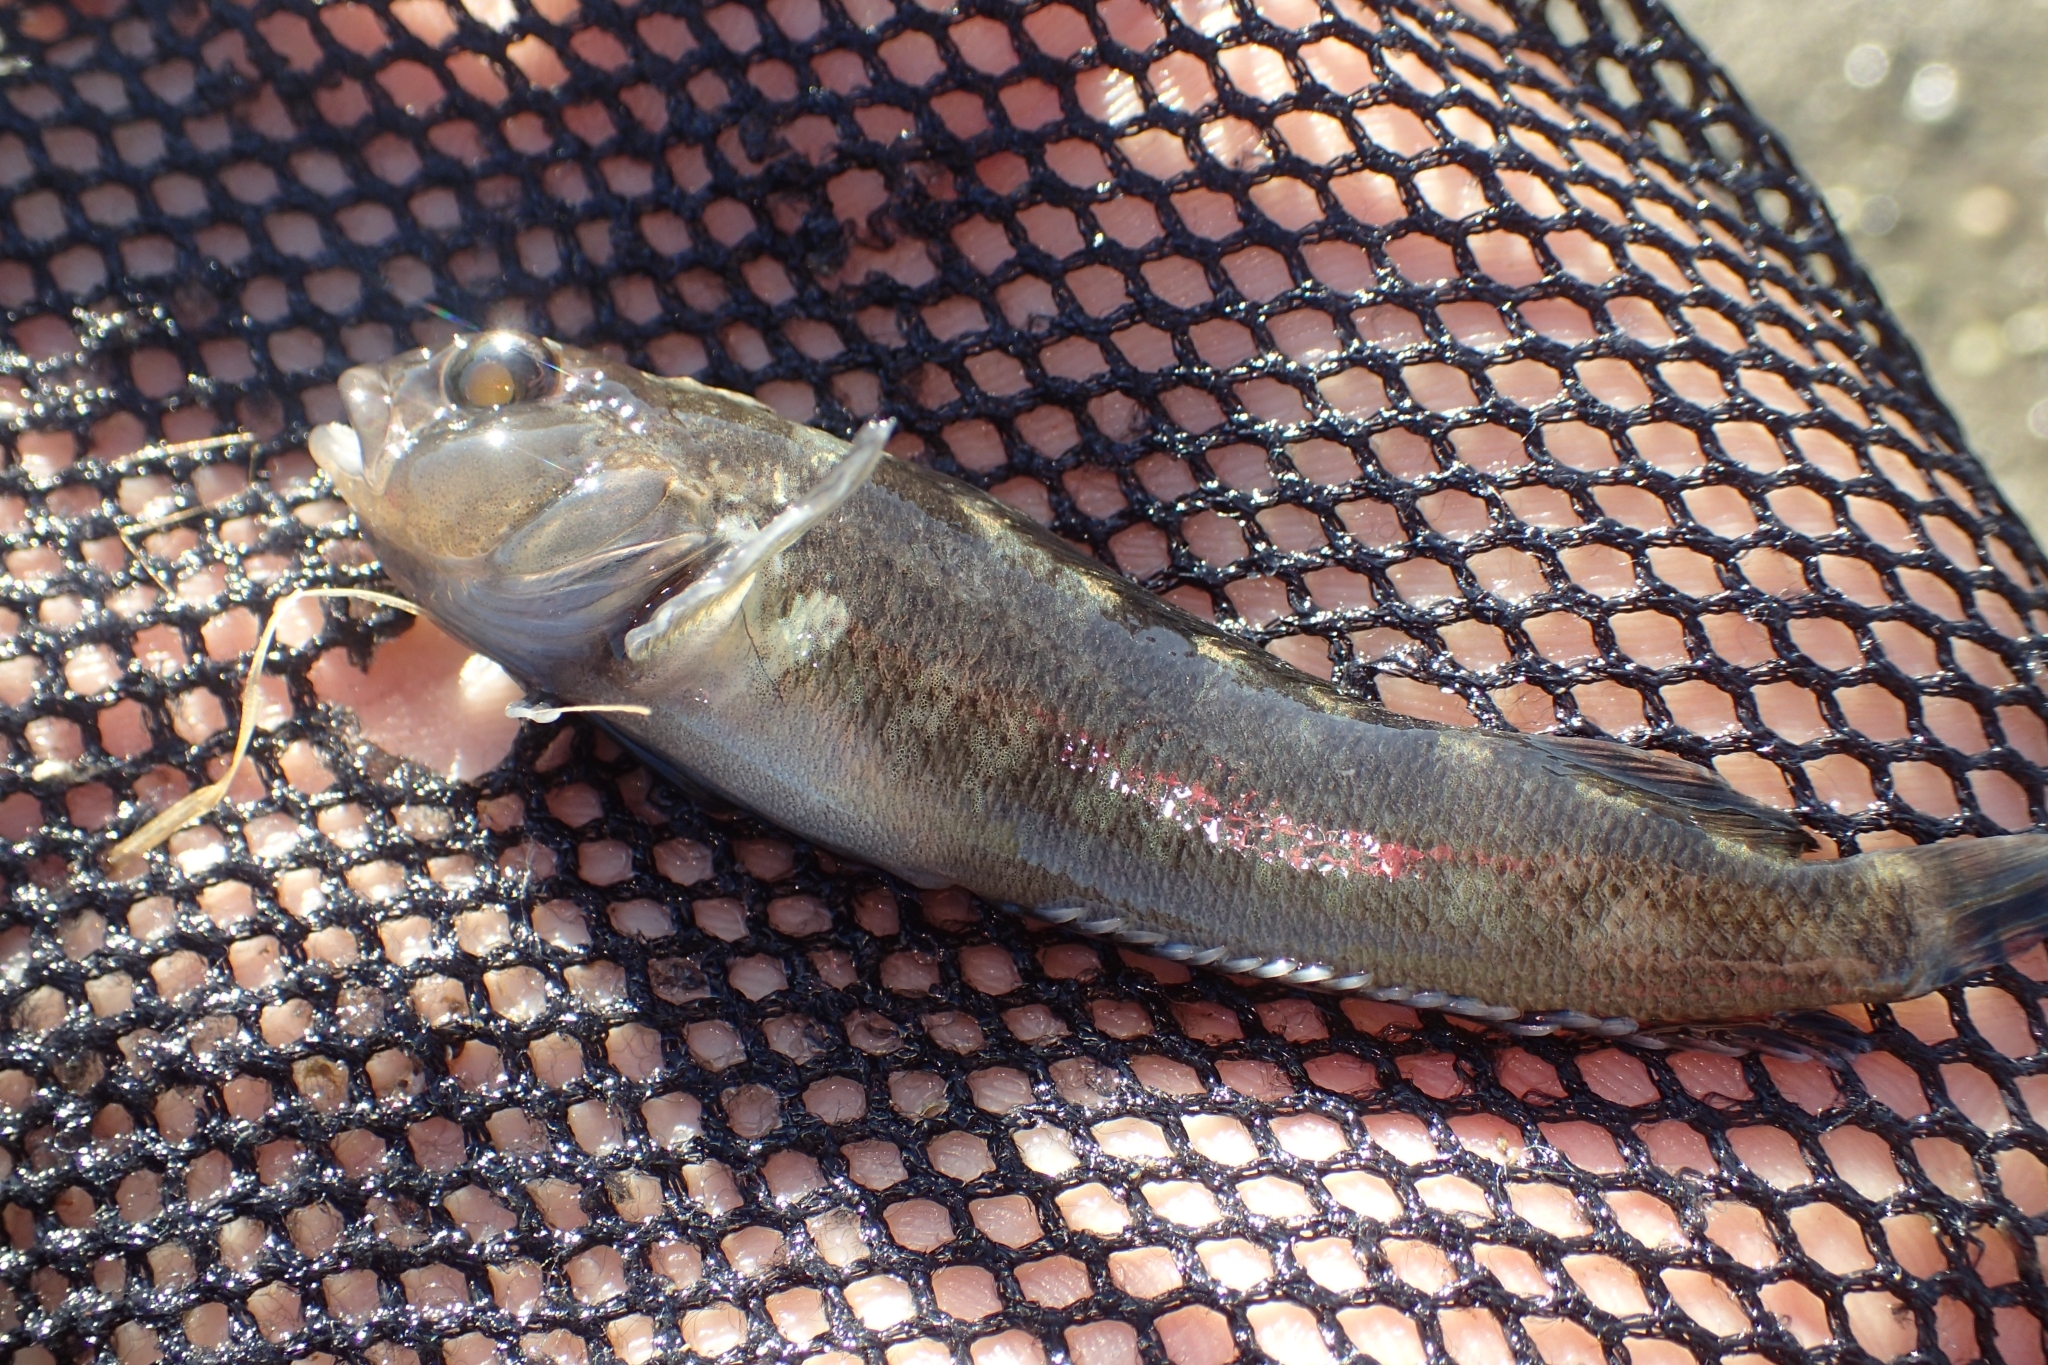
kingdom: Animalia
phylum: Chordata
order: Perciformes
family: Tripterygiidae
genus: Forsterygion
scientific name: Forsterygion gymnotum
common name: Multifid-tentacled robust triplefin
